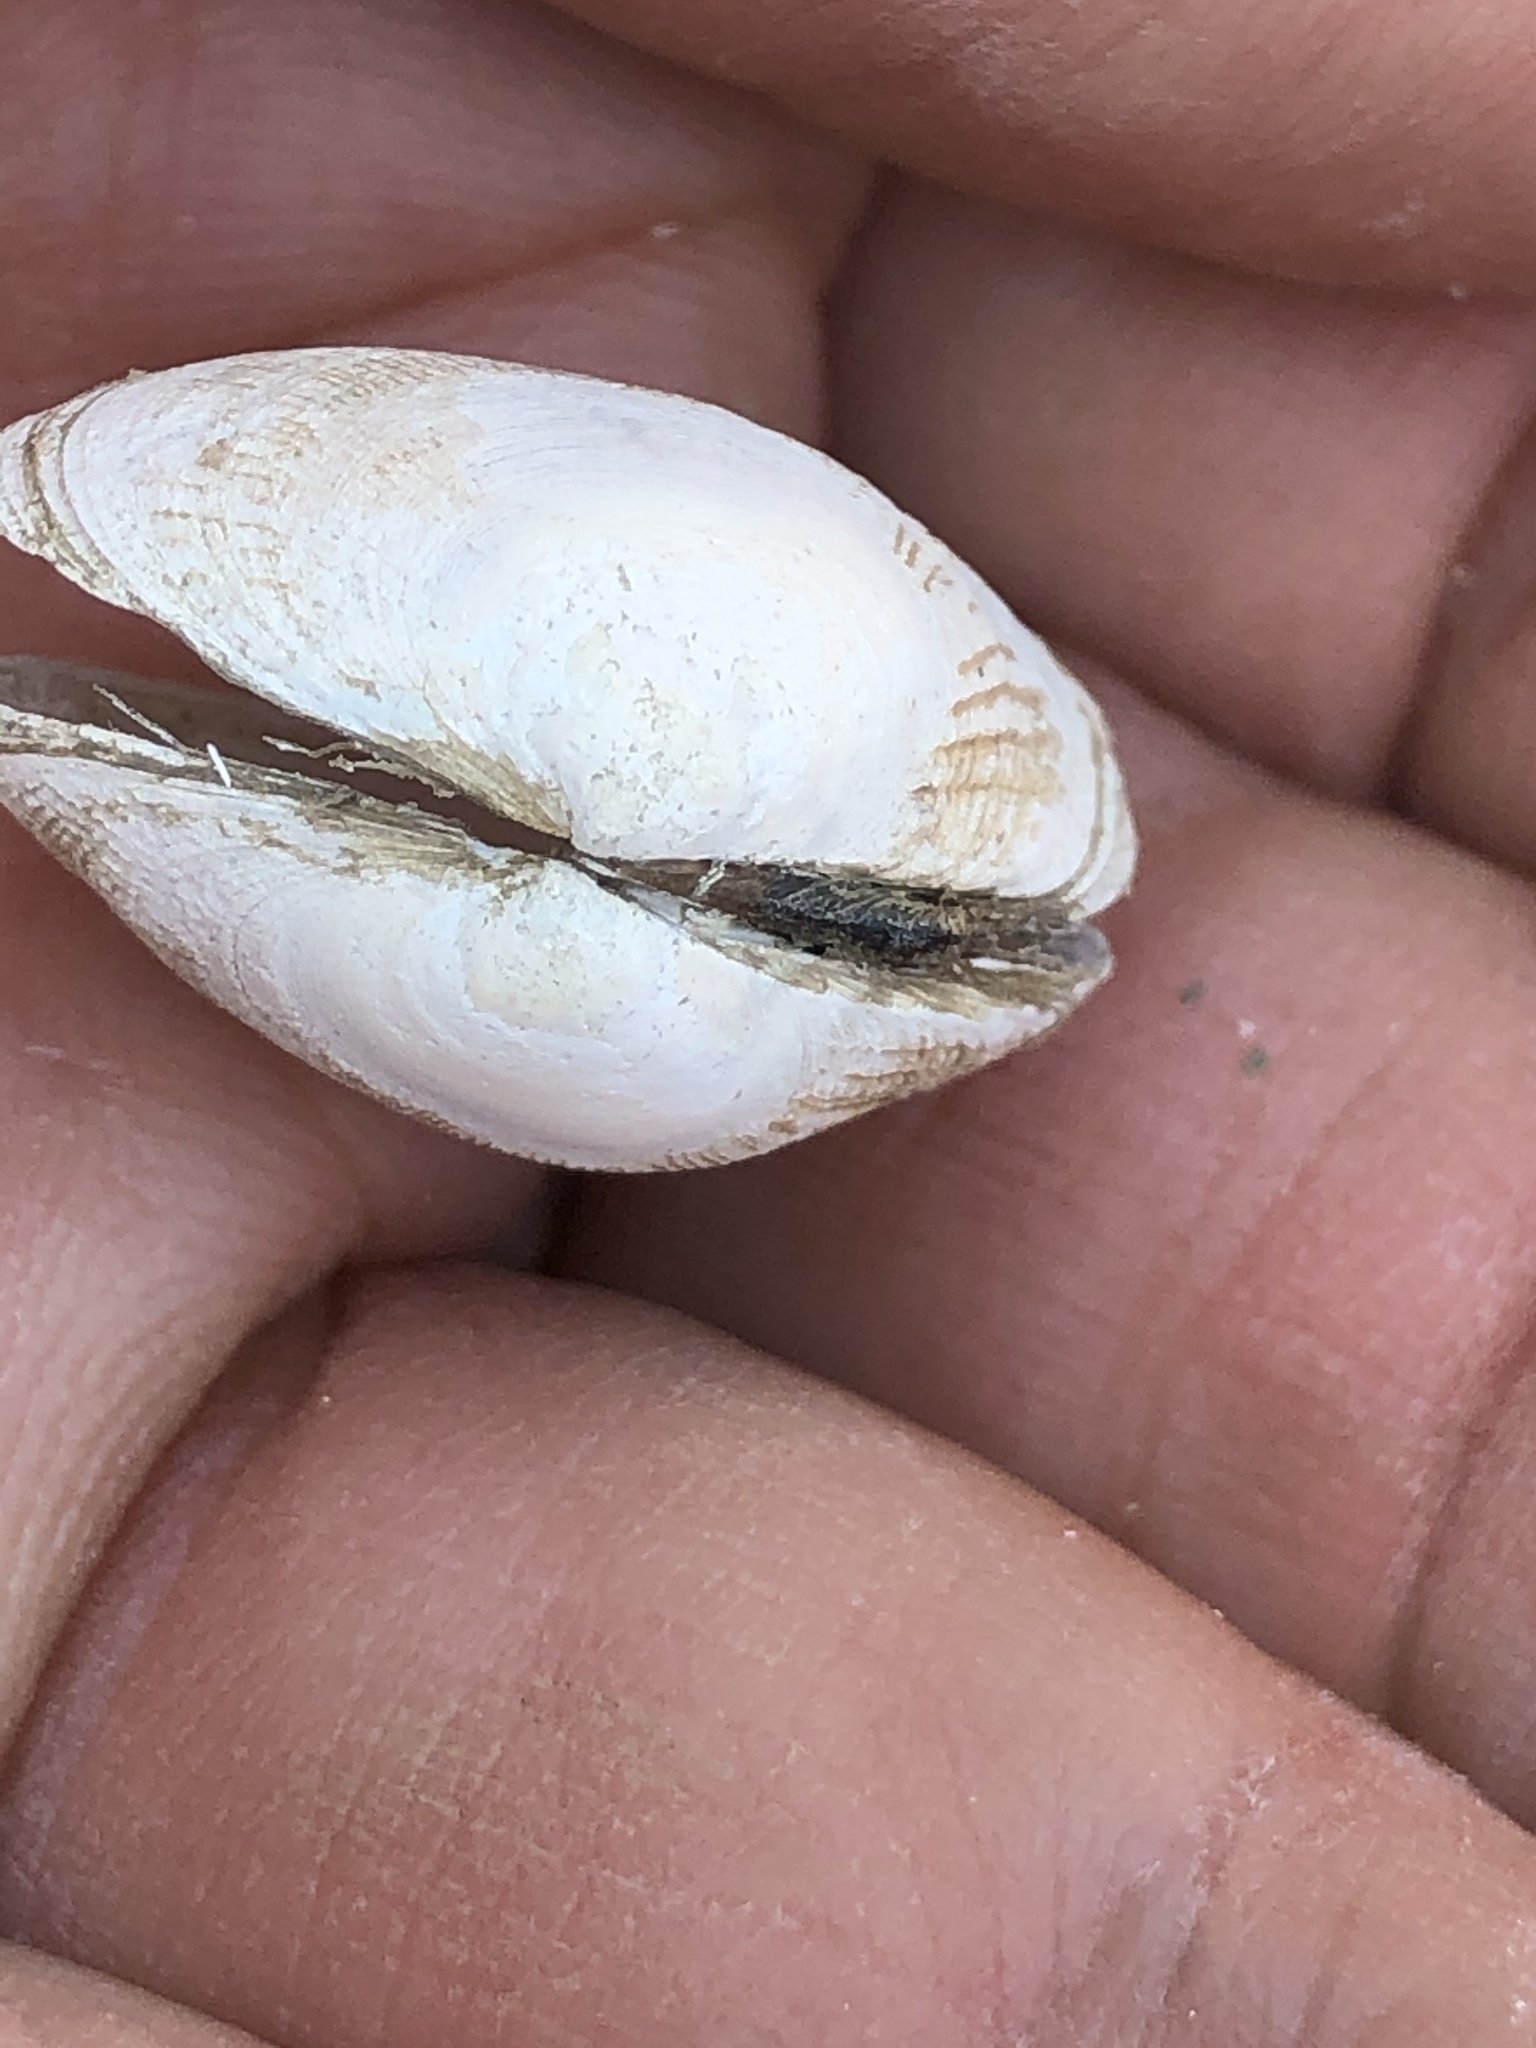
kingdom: Animalia
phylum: Mollusca
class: Bivalvia
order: Venerida
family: Veneridae
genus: Ruditapes
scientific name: Ruditapes philippinarum
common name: Manila clam
